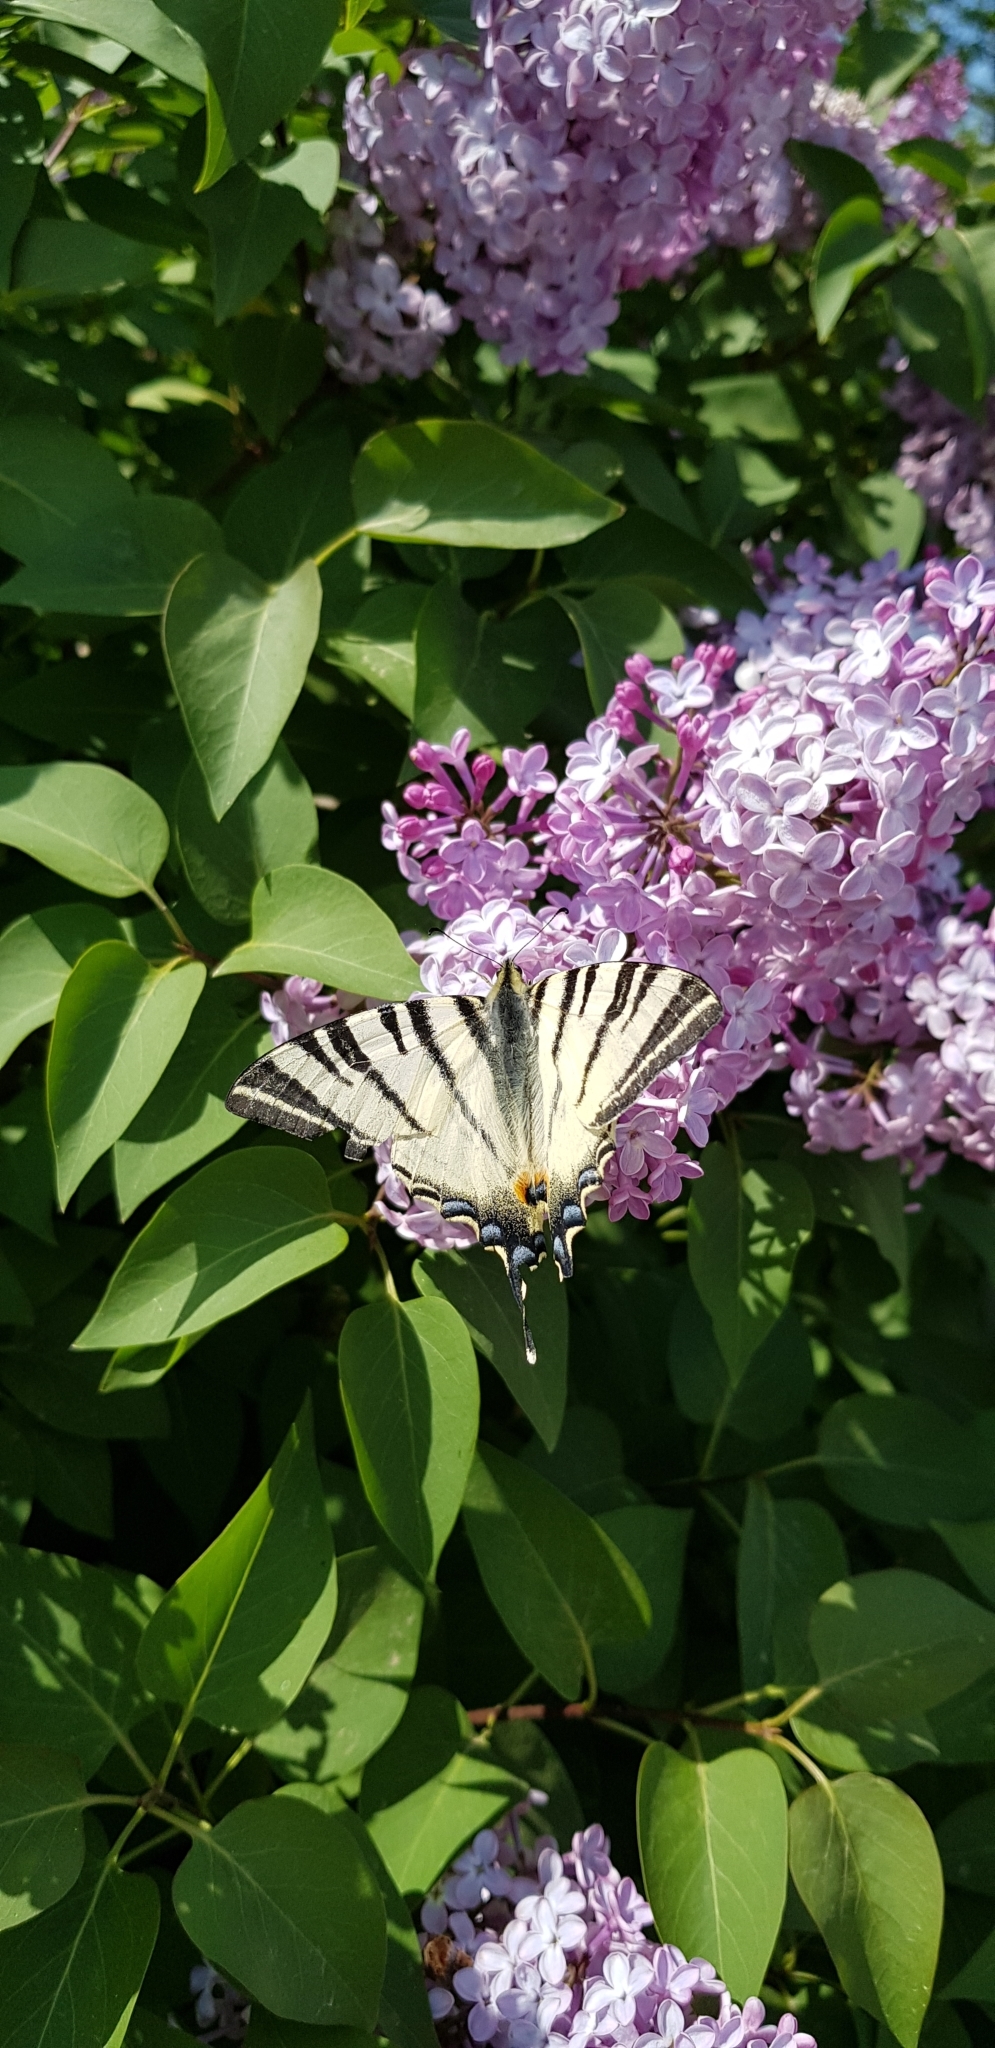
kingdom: Animalia
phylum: Arthropoda
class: Insecta
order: Lepidoptera
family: Papilionidae
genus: Iphiclides
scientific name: Iphiclides podalirius
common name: Scarce swallowtail
